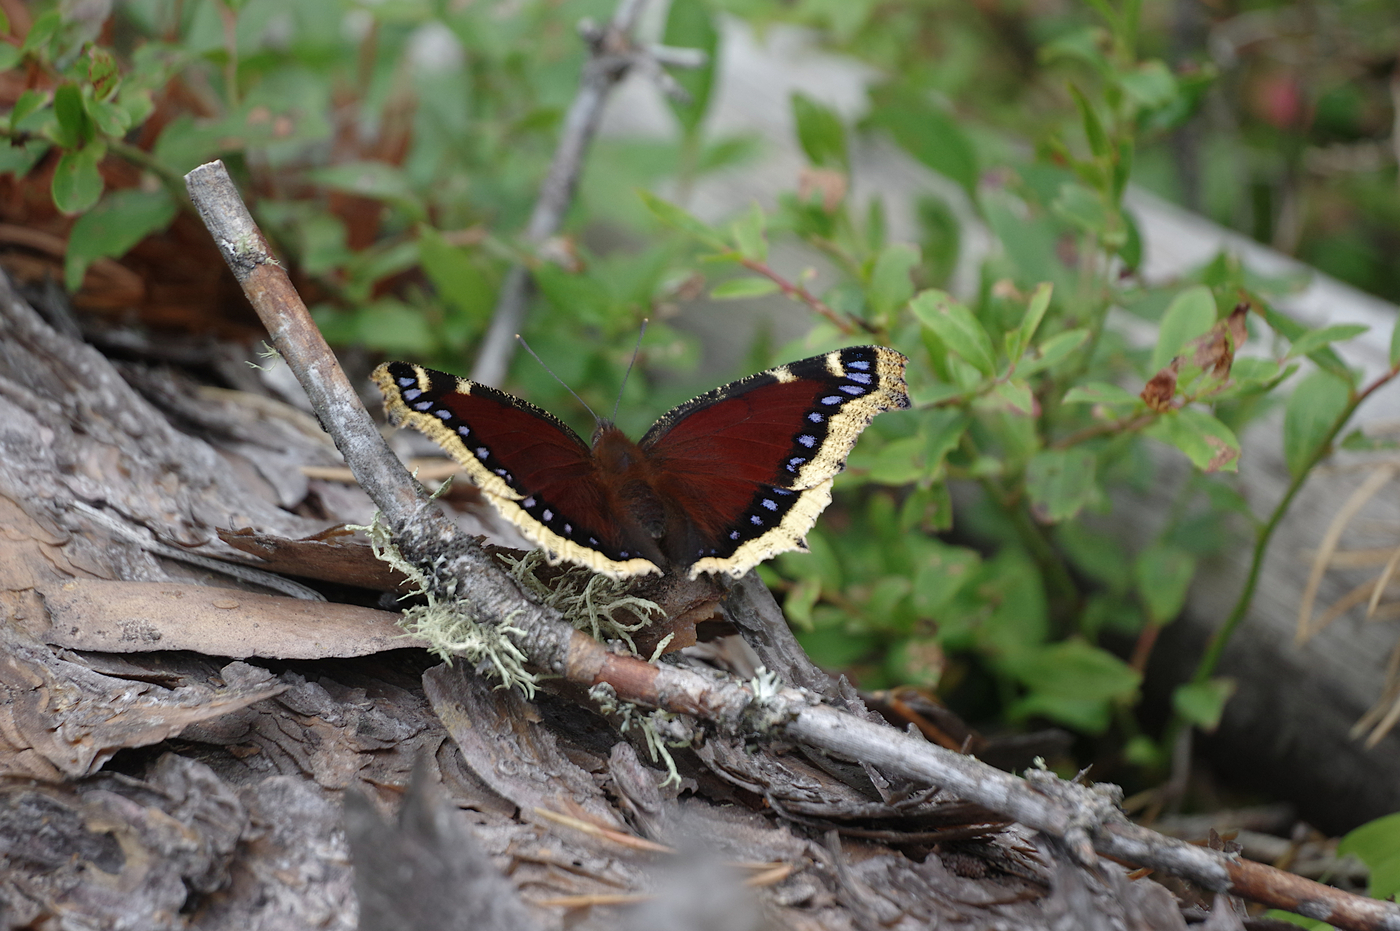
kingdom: Animalia
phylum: Arthropoda
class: Insecta
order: Lepidoptera
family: Nymphalidae
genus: Nymphalis
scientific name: Nymphalis antiopa
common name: Camberwell beauty
